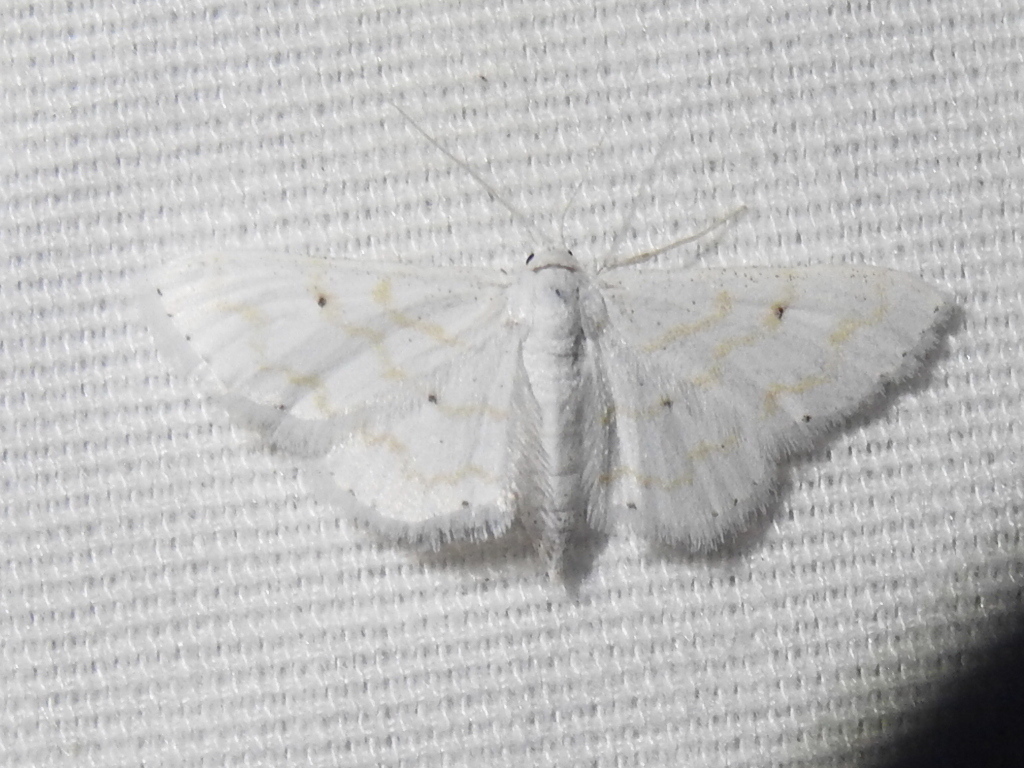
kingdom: Animalia
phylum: Arthropoda
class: Insecta
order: Lepidoptera
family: Geometridae
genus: Lobocleta
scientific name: Lobocleta peralbata
